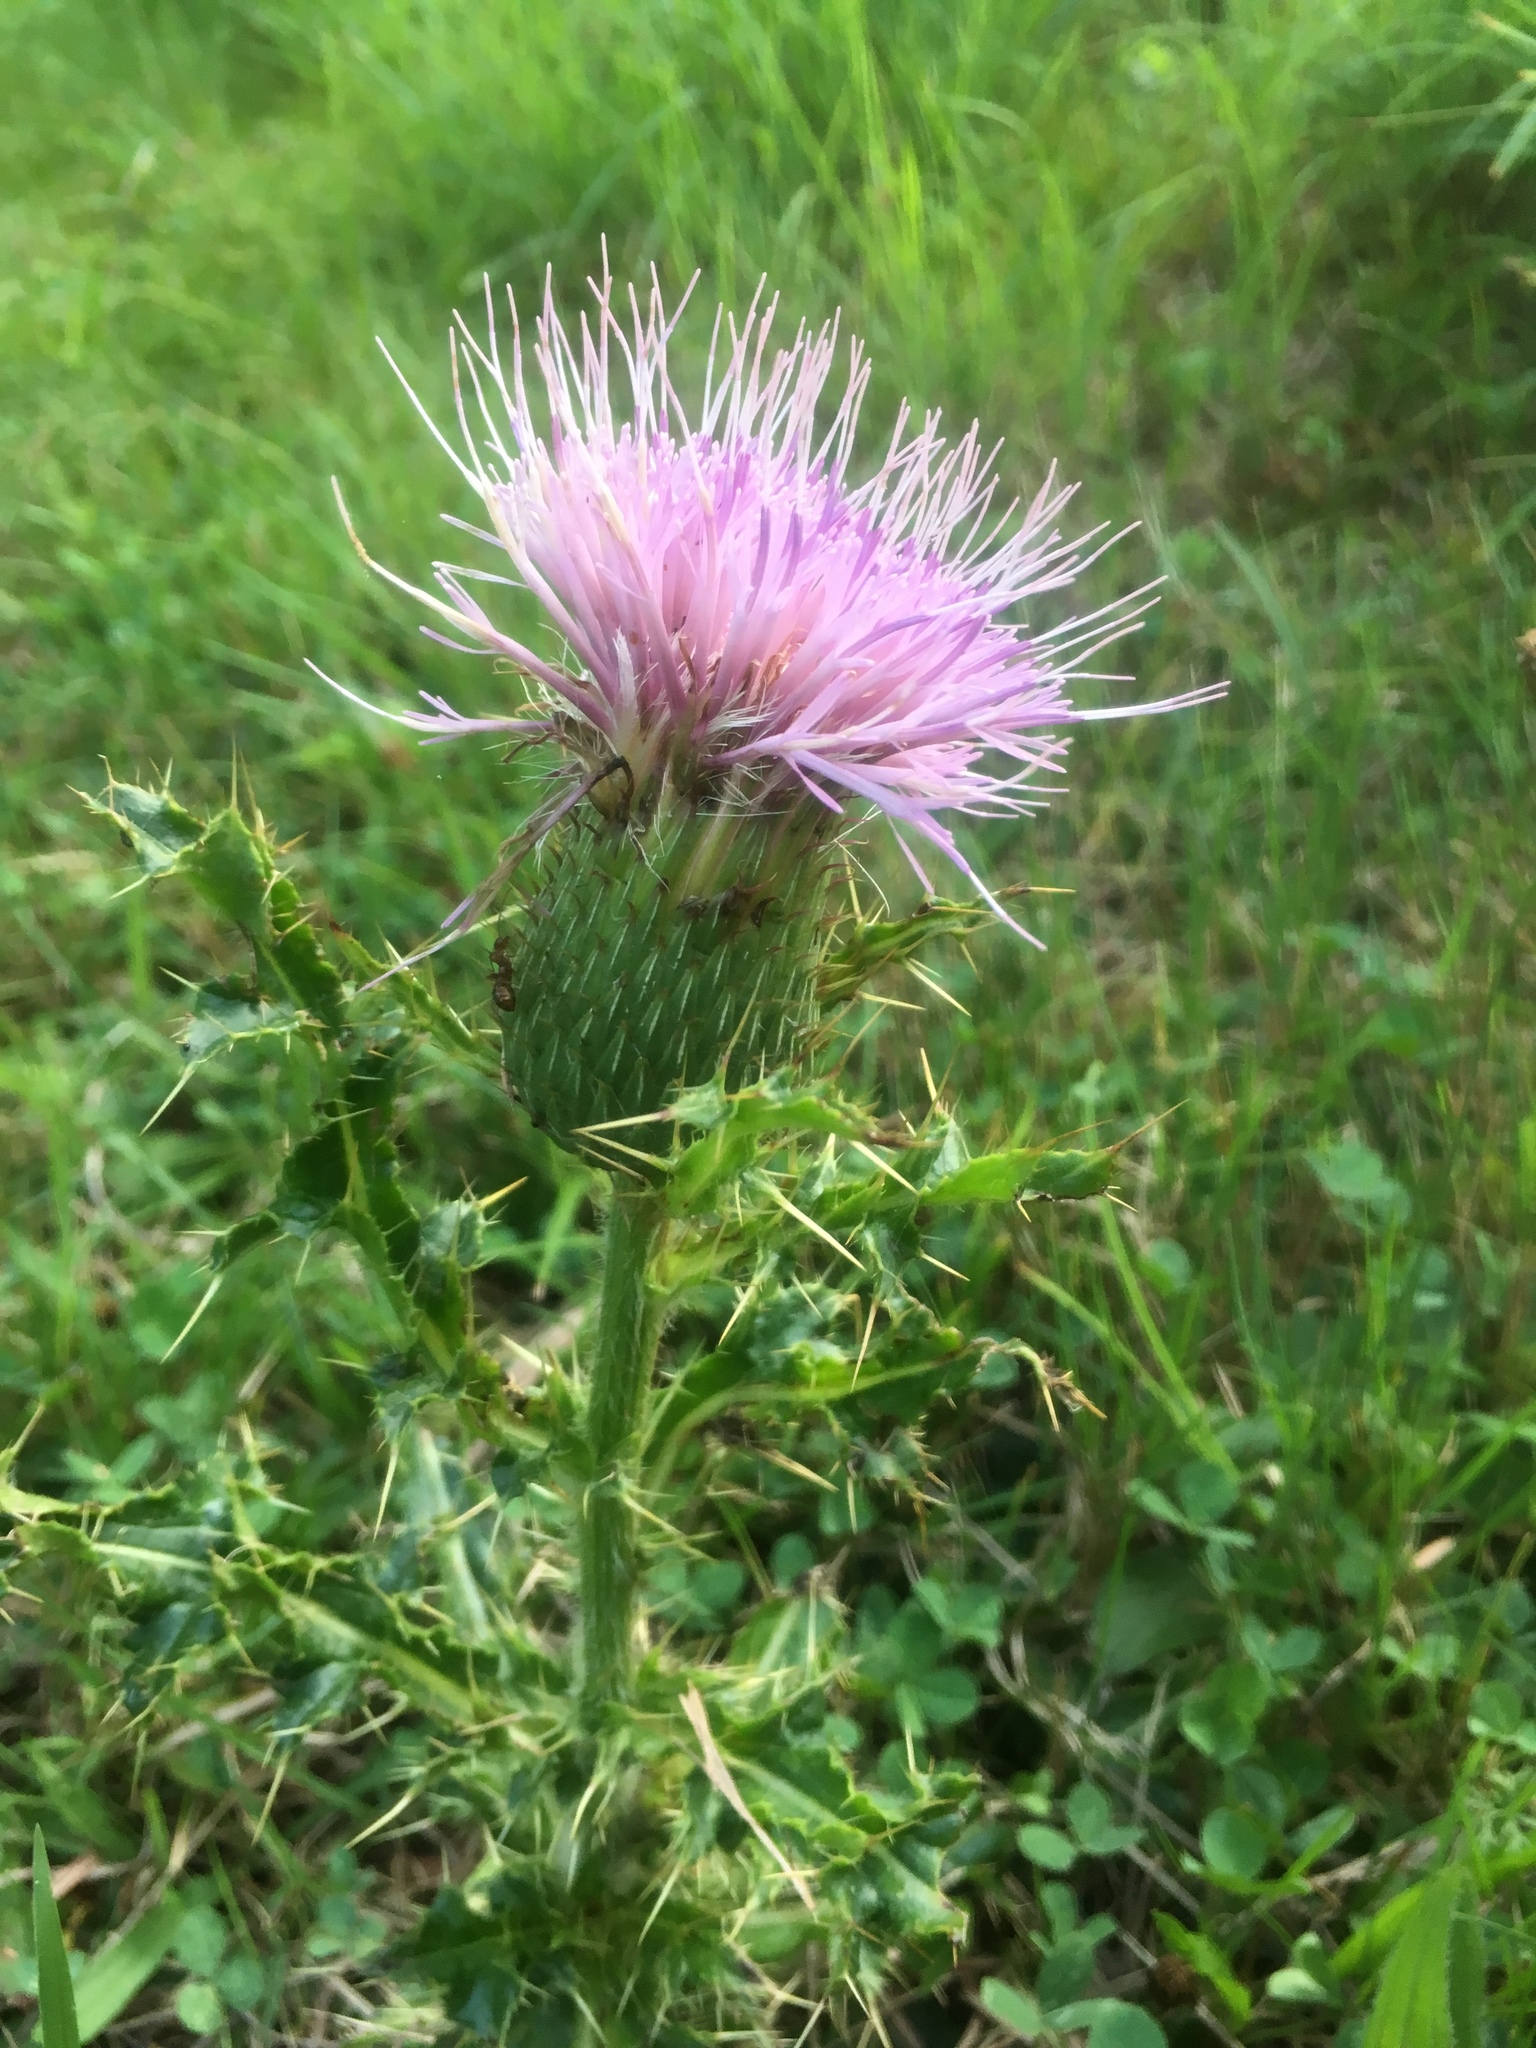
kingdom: Plantae
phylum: Tracheophyta
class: Magnoliopsida
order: Asterales
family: Asteraceae
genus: Cirsium
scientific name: Cirsium pumilum
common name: Pasture thistle
